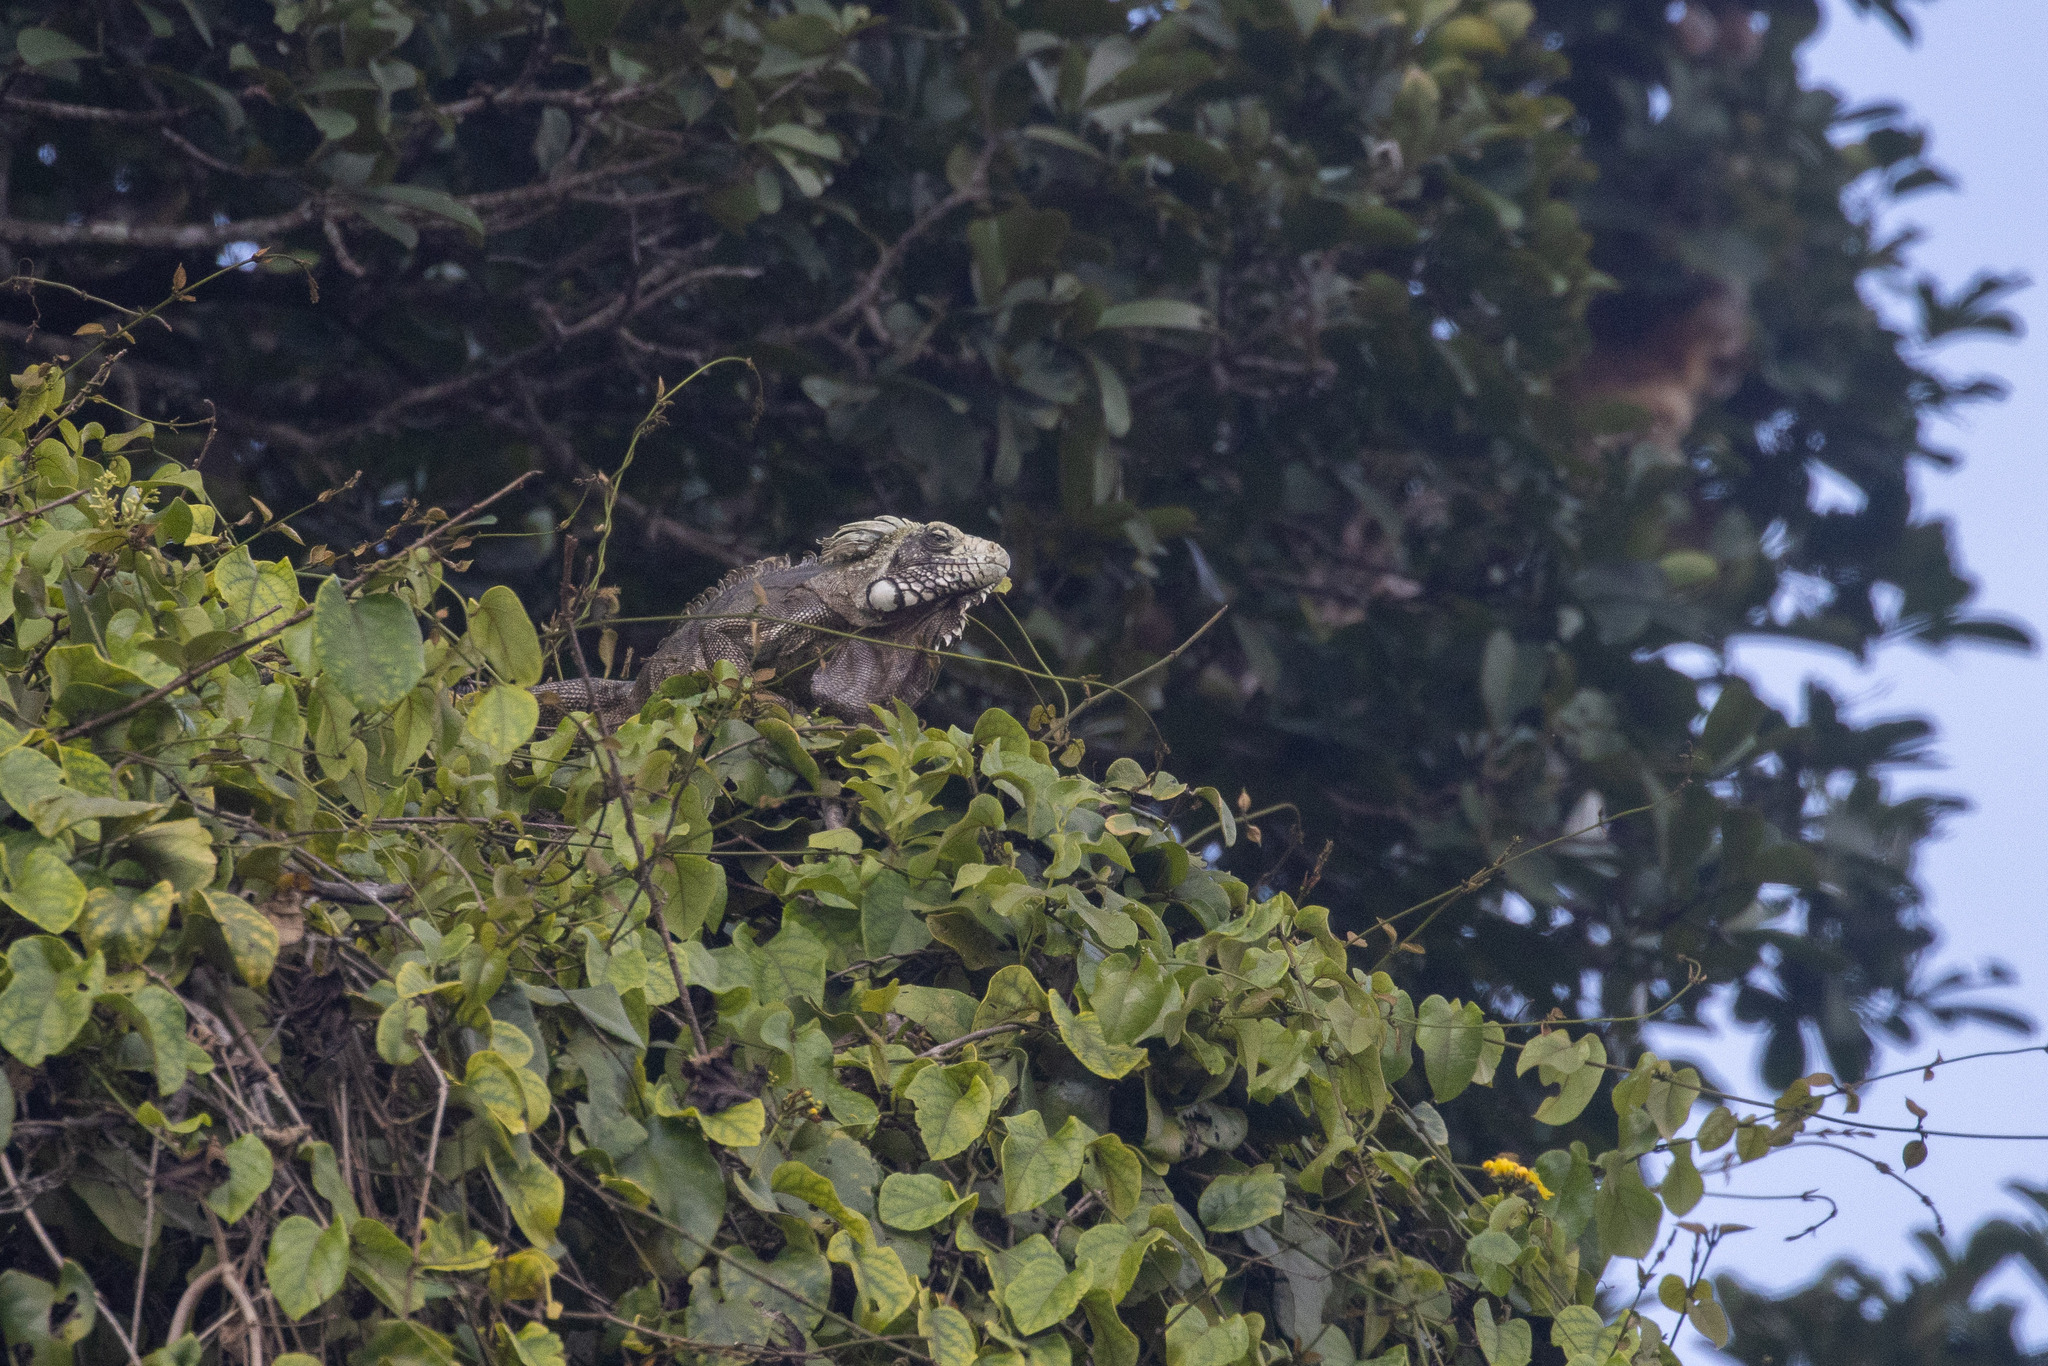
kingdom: Animalia
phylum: Chordata
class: Squamata
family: Iguanidae
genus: Iguana
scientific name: Iguana iguana
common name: Green iguana
